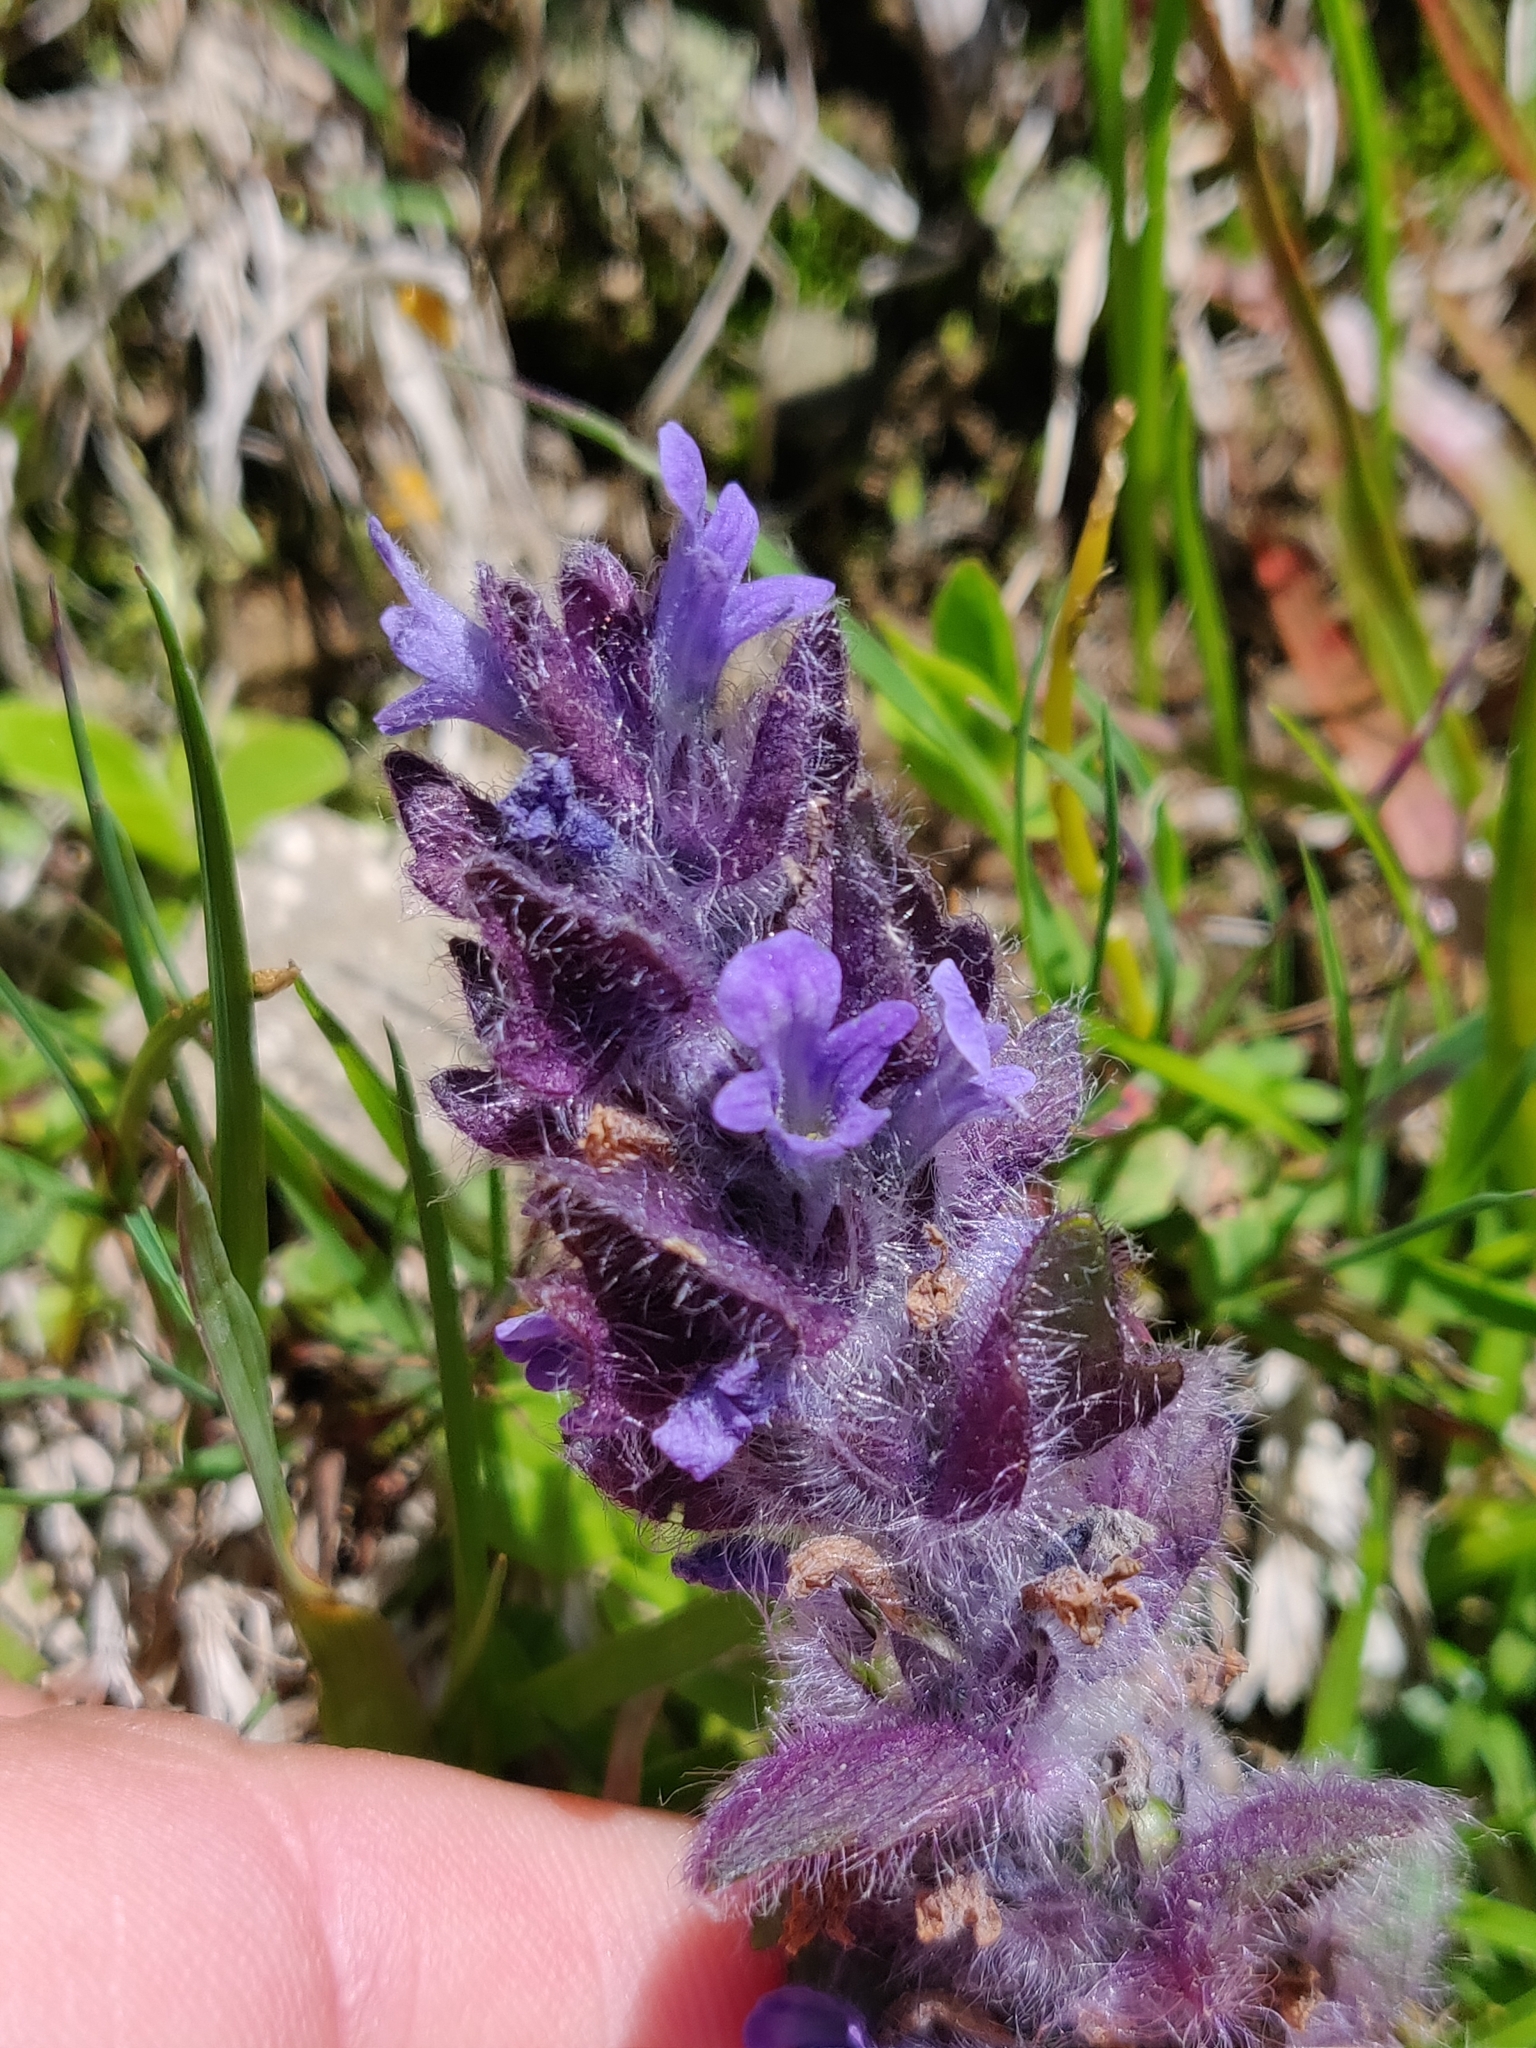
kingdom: Plantae
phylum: Tracheophyta
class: Magnoliopsida
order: Lamiales
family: Lamiaceae
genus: Ajuga
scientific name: Ajuga pyramidalis
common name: Pyramid bugle
